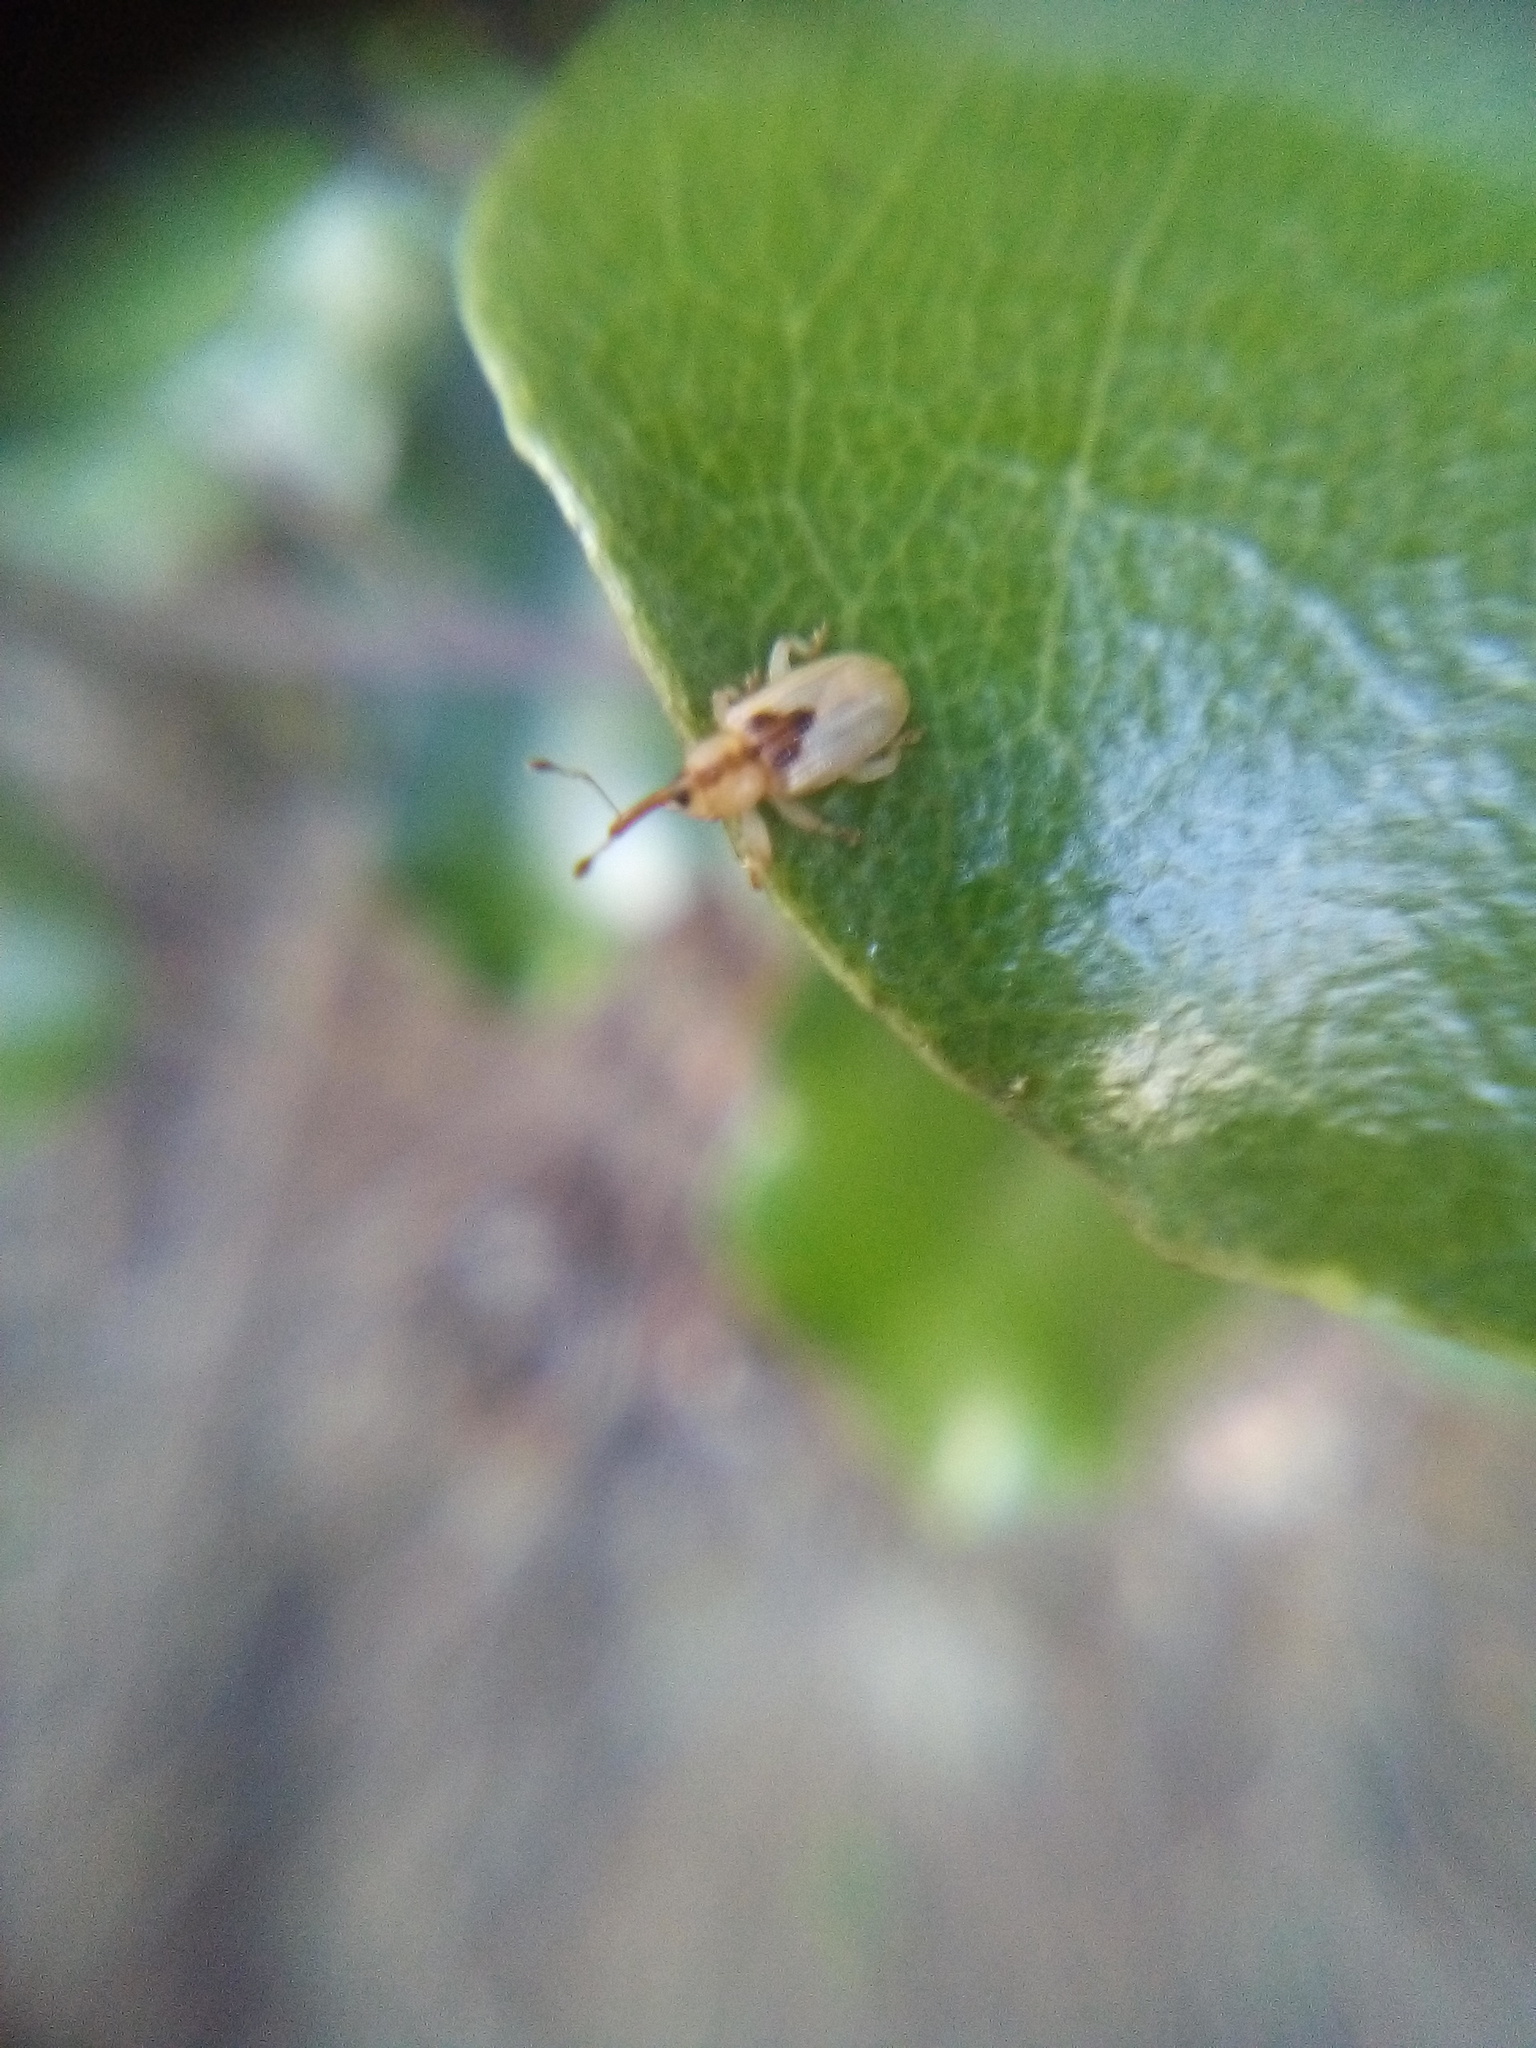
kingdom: Animalia
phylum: Arthropoda
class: Insecta
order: Coleoptera
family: Curculionidae
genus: Peristoreus
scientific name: Peristoreus
